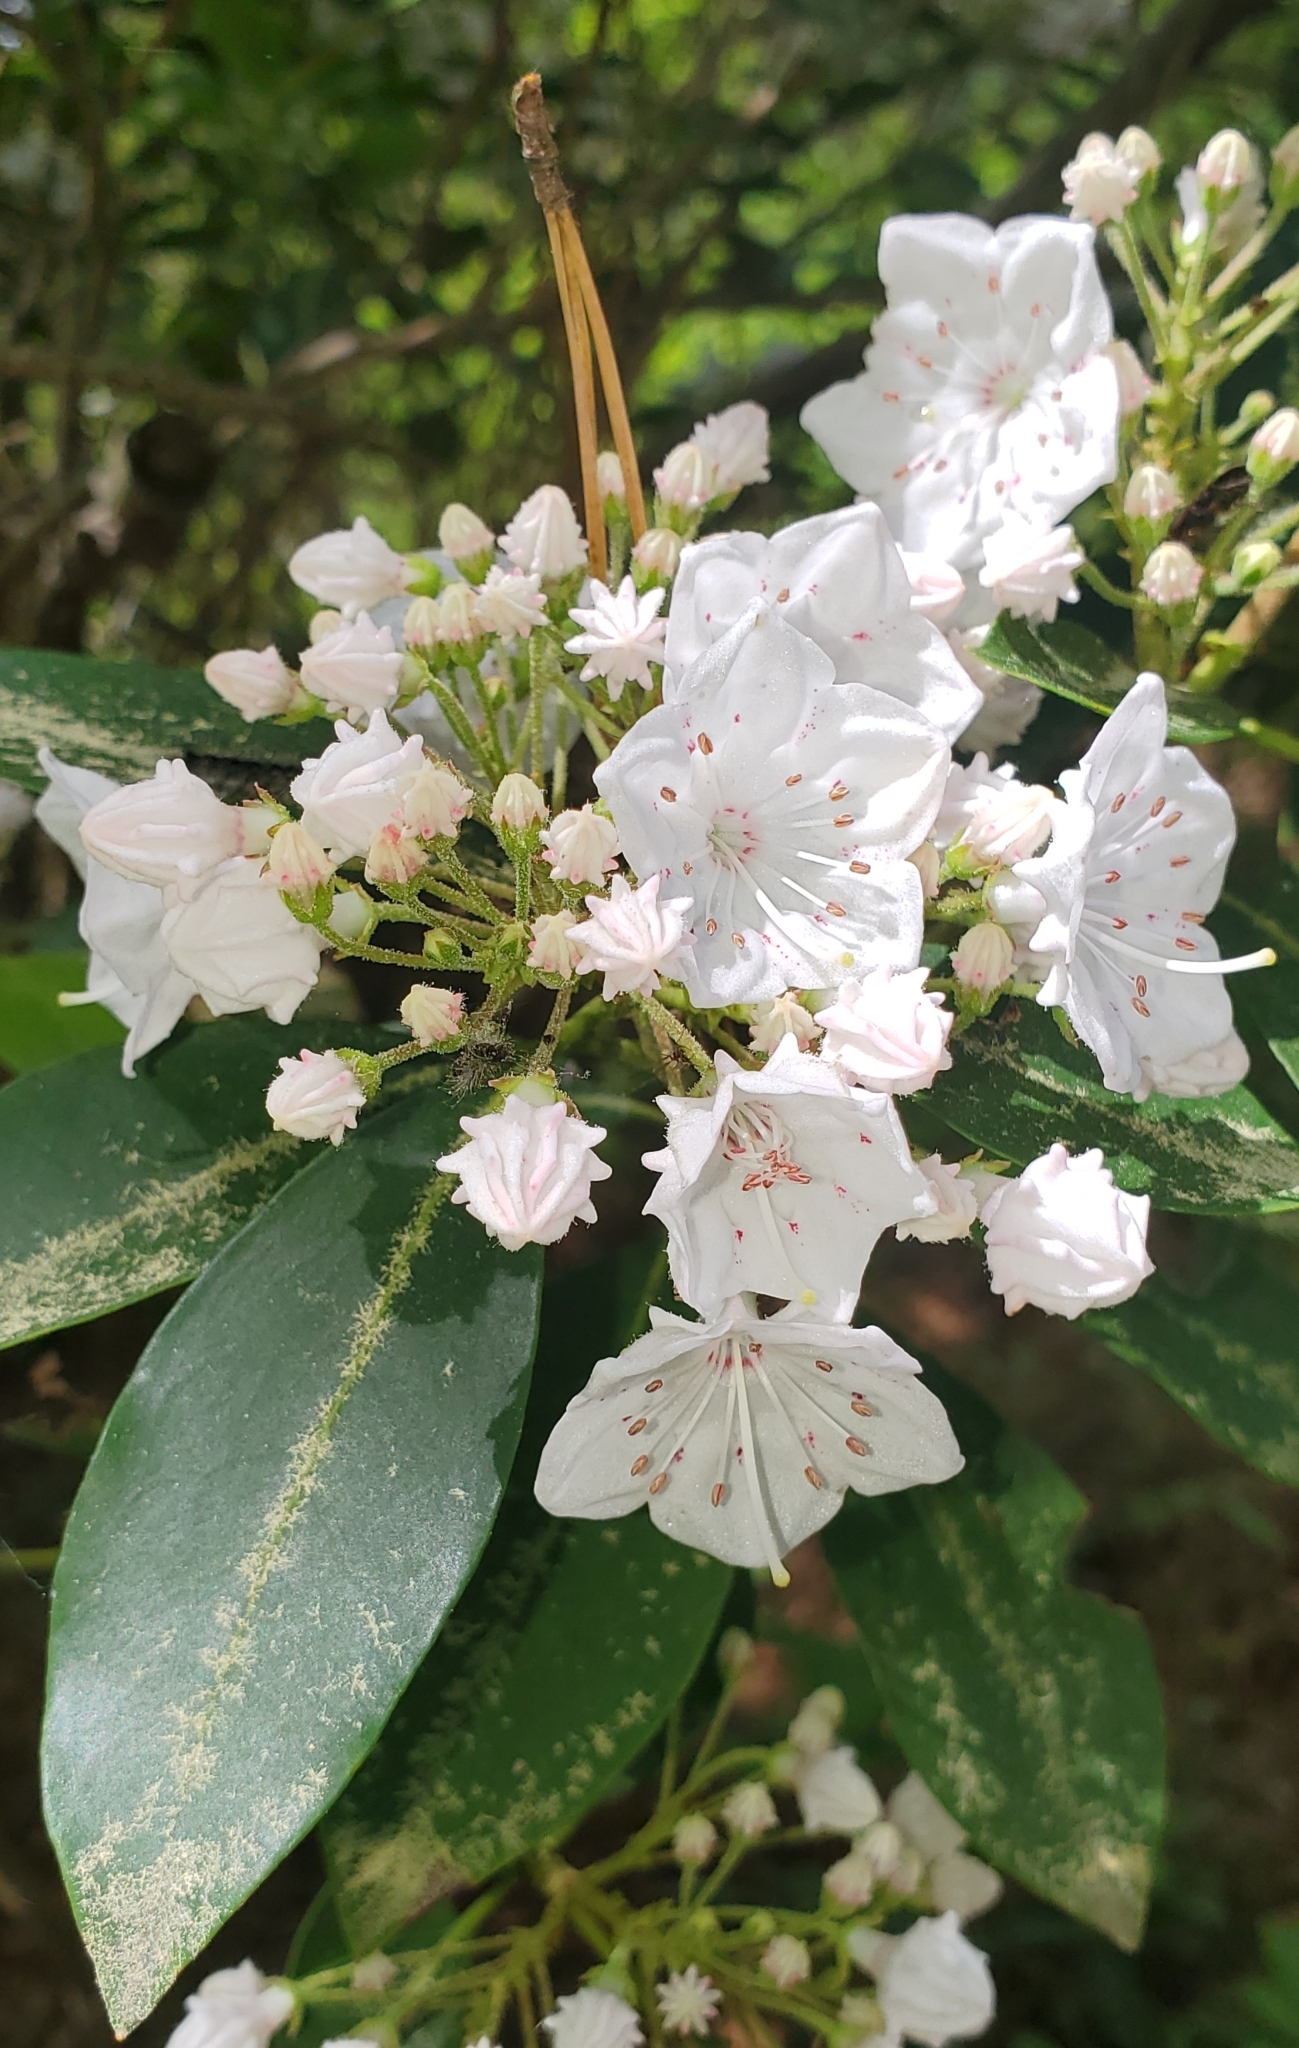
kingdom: Plantae
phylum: Tracheophyta
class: Magnoliopsida
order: Ericales
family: Ericaceae
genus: Kalmia
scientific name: Kalmia latifolia
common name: Mountain-laurel
